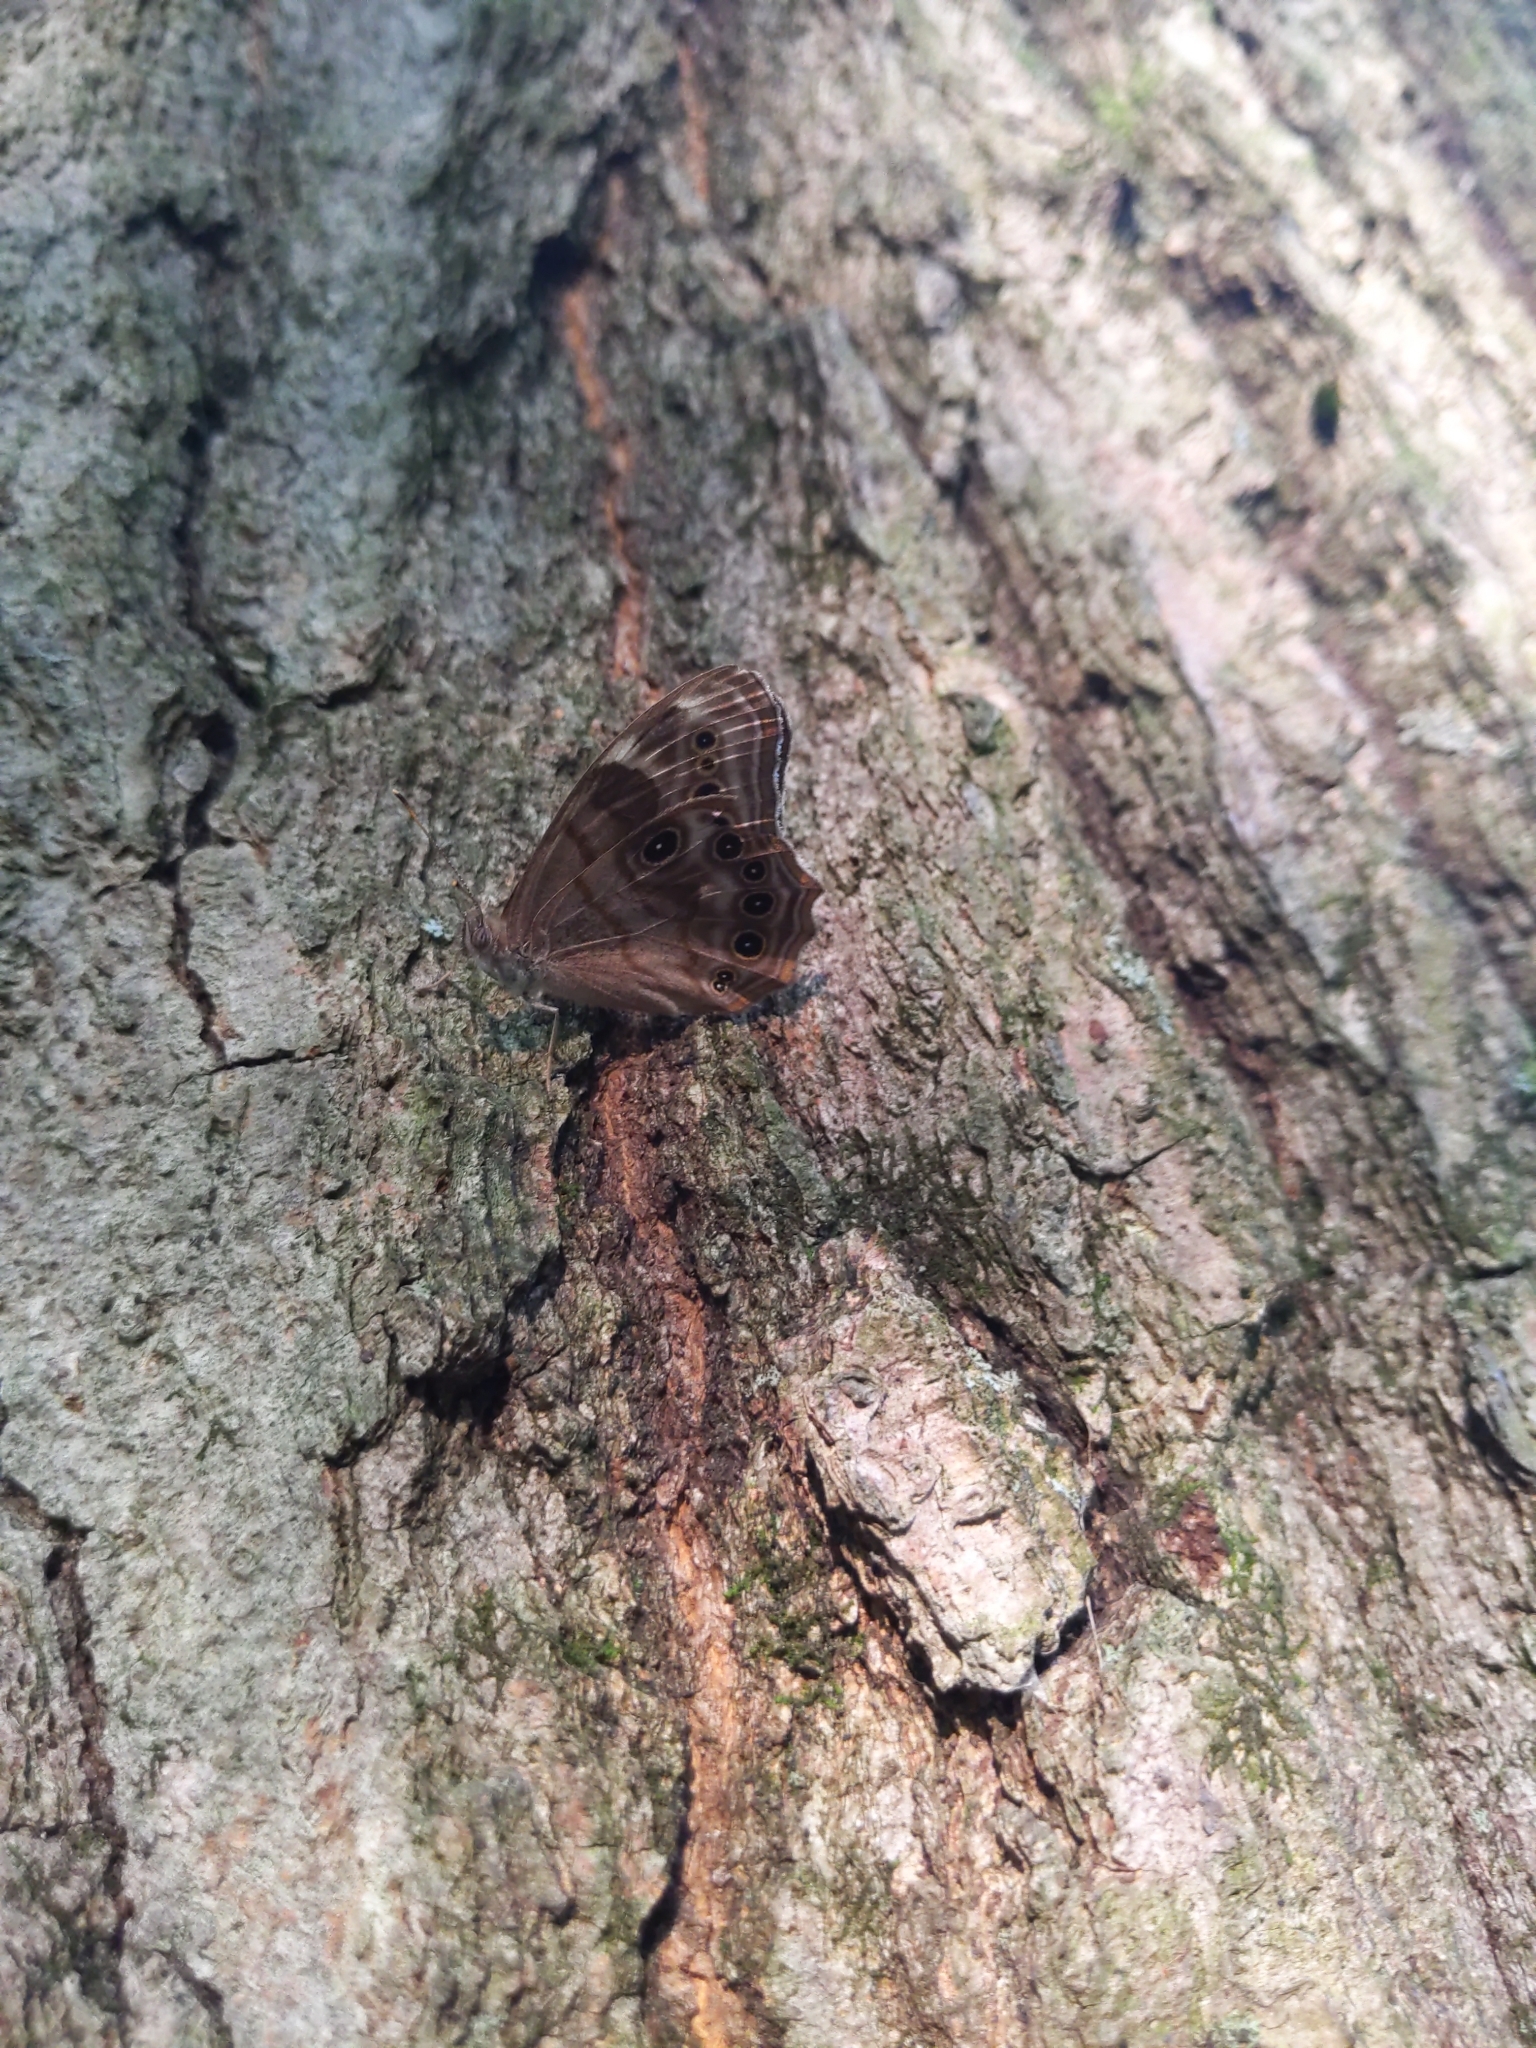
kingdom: Animalia
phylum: Arthropoda
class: Insecta
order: Lepidoptera
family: Nymphalidae
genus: Lethe
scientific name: Lethe anthedon
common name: Northern pearly-eye
